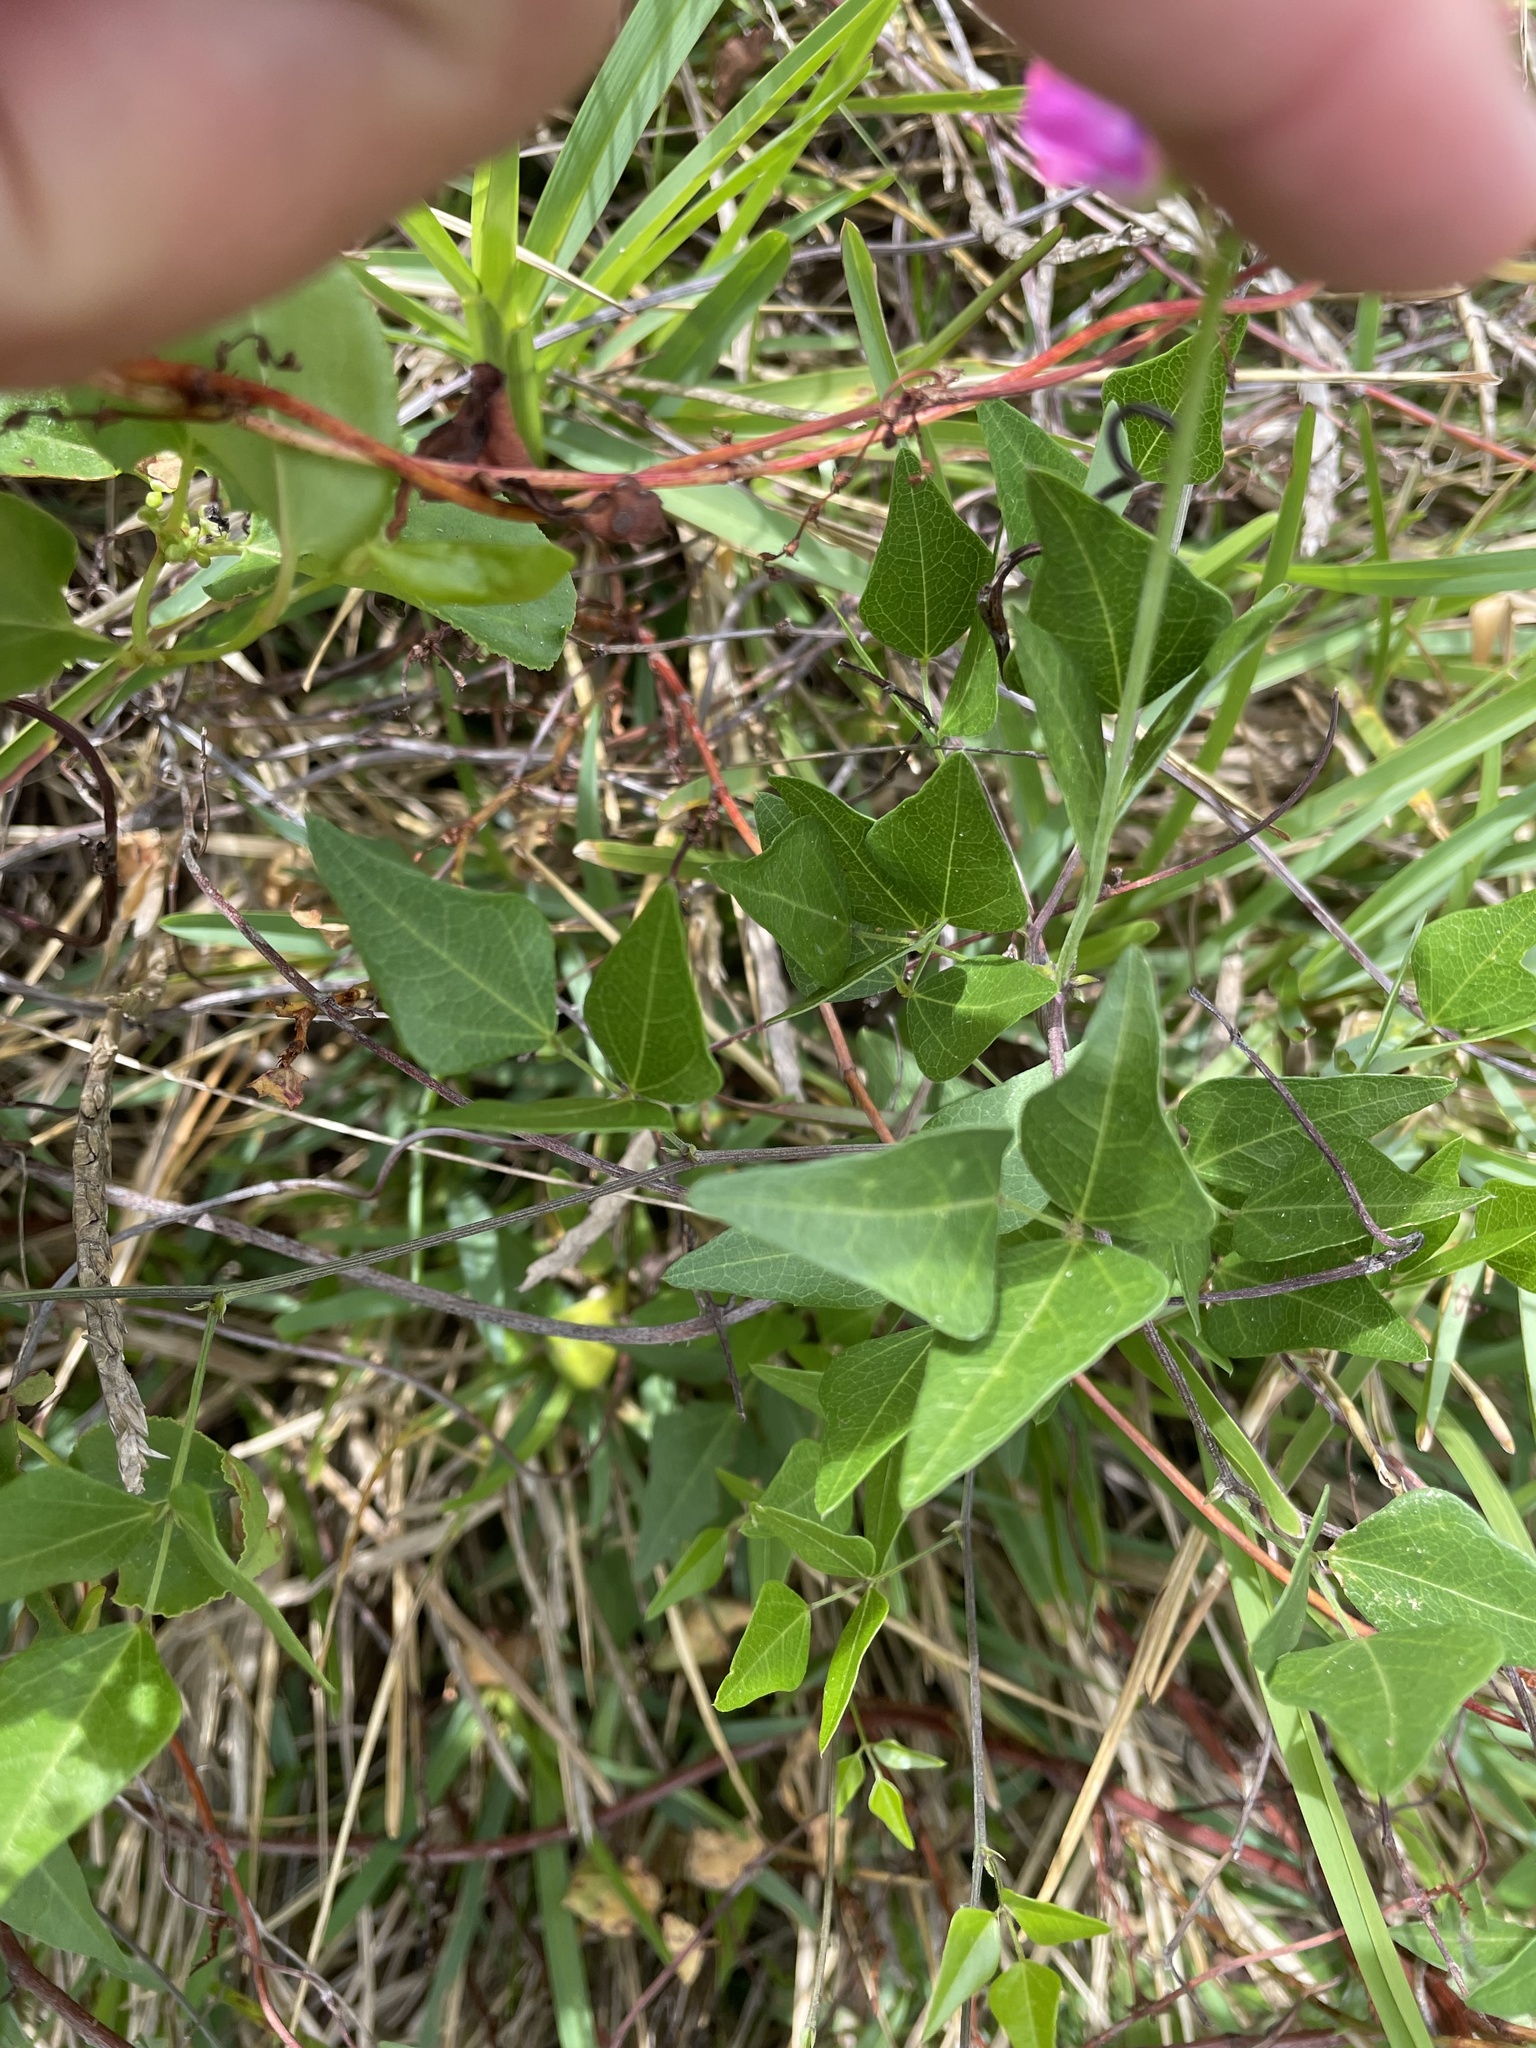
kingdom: Plantae
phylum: Tracheophyta
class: Magnoliopsida
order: Fabales
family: Fabaceae
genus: Dipogon
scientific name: Dipogon lignosus
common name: Okie bean
